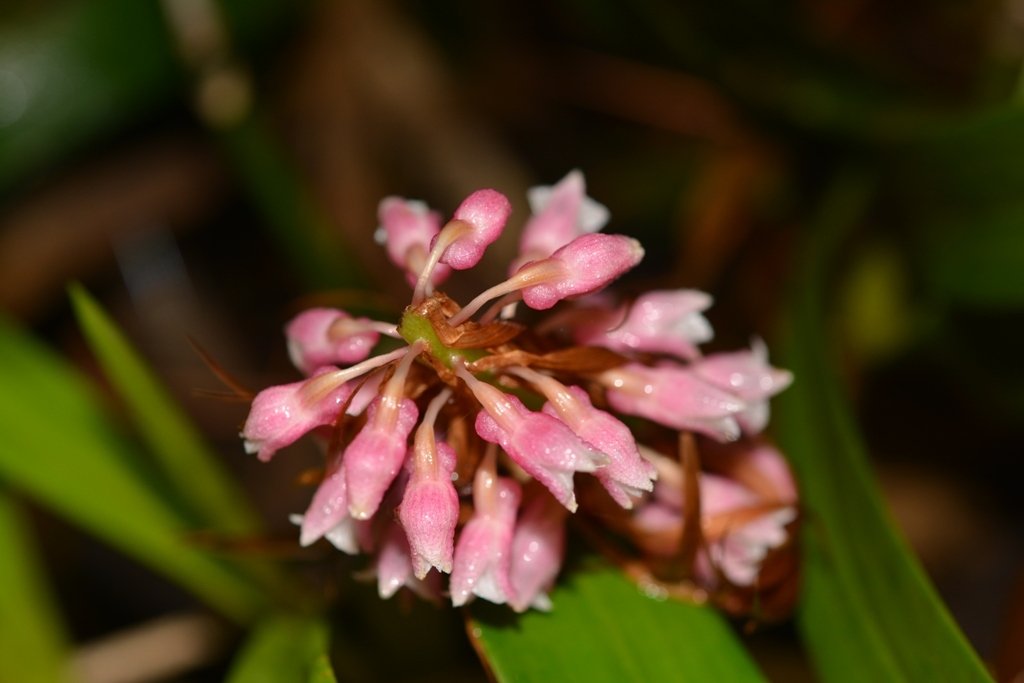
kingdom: Plantae
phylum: Tracheophyta
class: Liliopsida
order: Asparagales
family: Orchidaceae
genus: Coelia
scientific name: Coelia macrostachya
